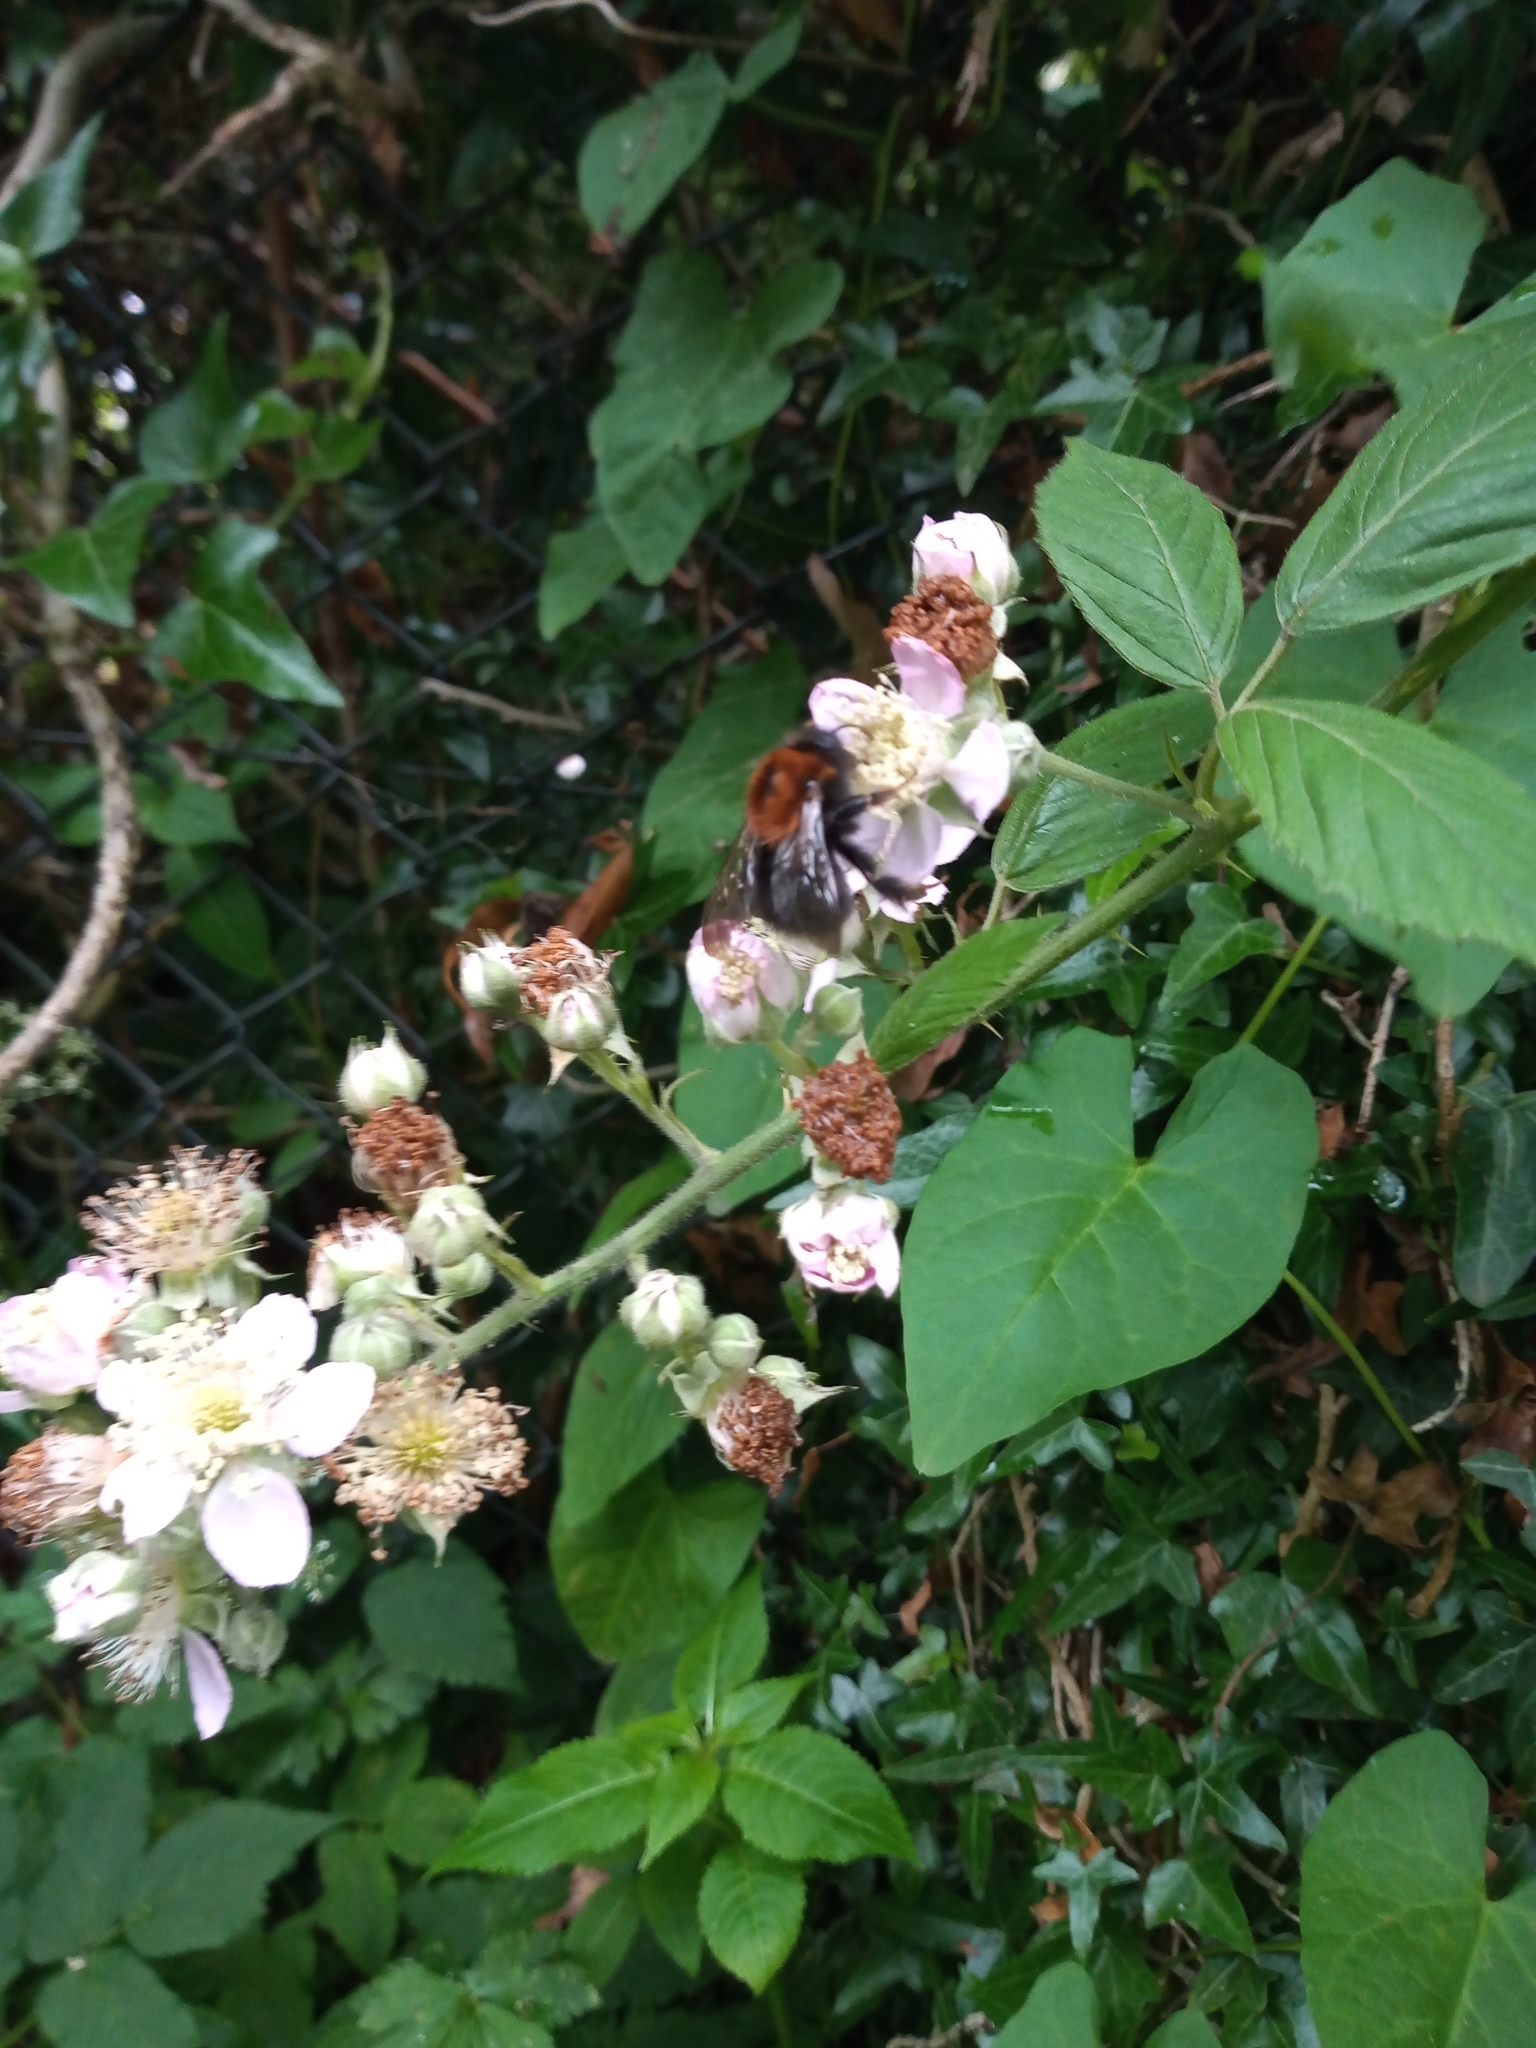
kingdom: Animalia
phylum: Arthropoda
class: Insecta
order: Hymenoptera
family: Apidae
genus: Bombus
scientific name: Bombus hypnorum
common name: New garden bumblebee
